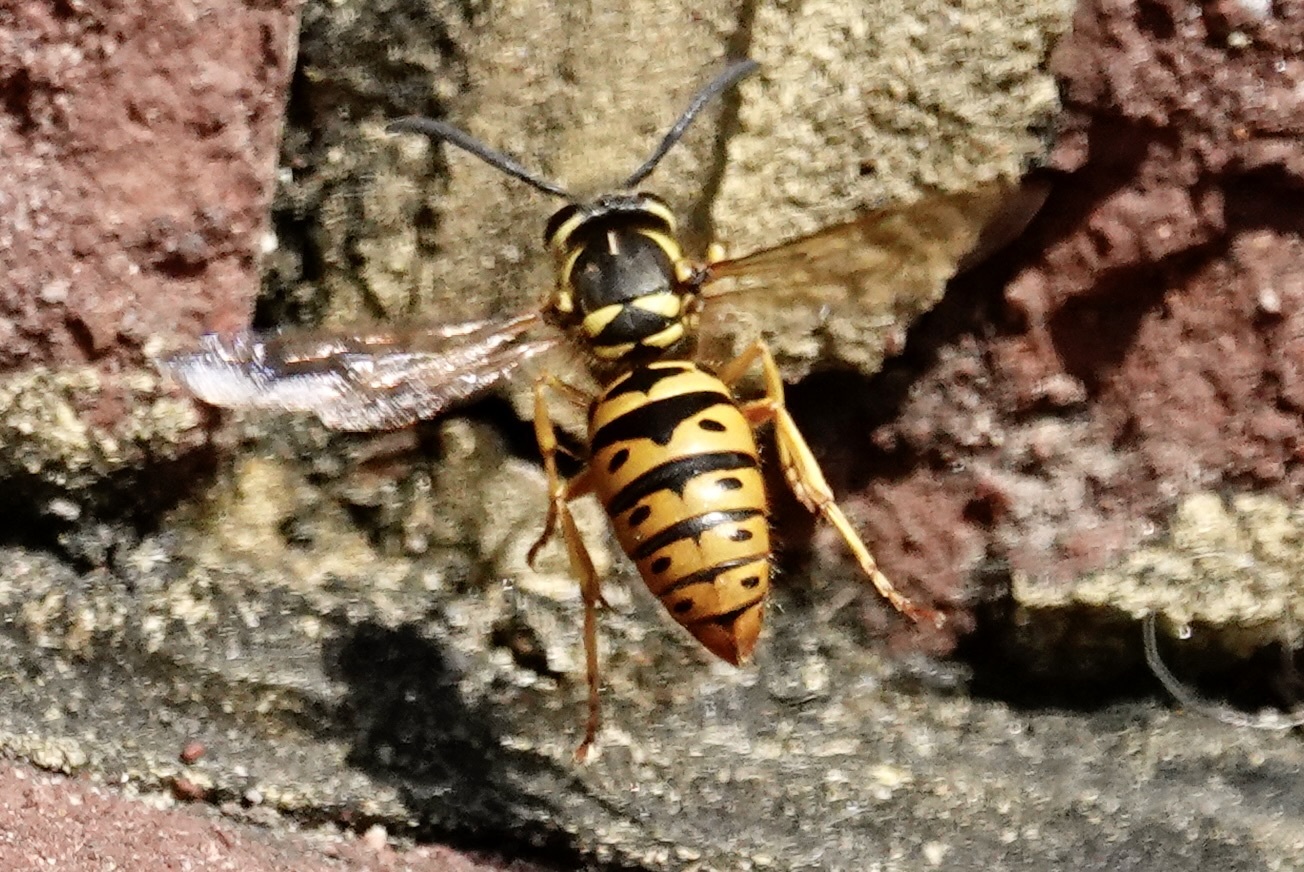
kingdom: Animalia
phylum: Arthropoda
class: Insecta
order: Hymenoptera
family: Vespidae
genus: Vespula
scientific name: Vespula maculifrons
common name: Eastern yellowjacket
